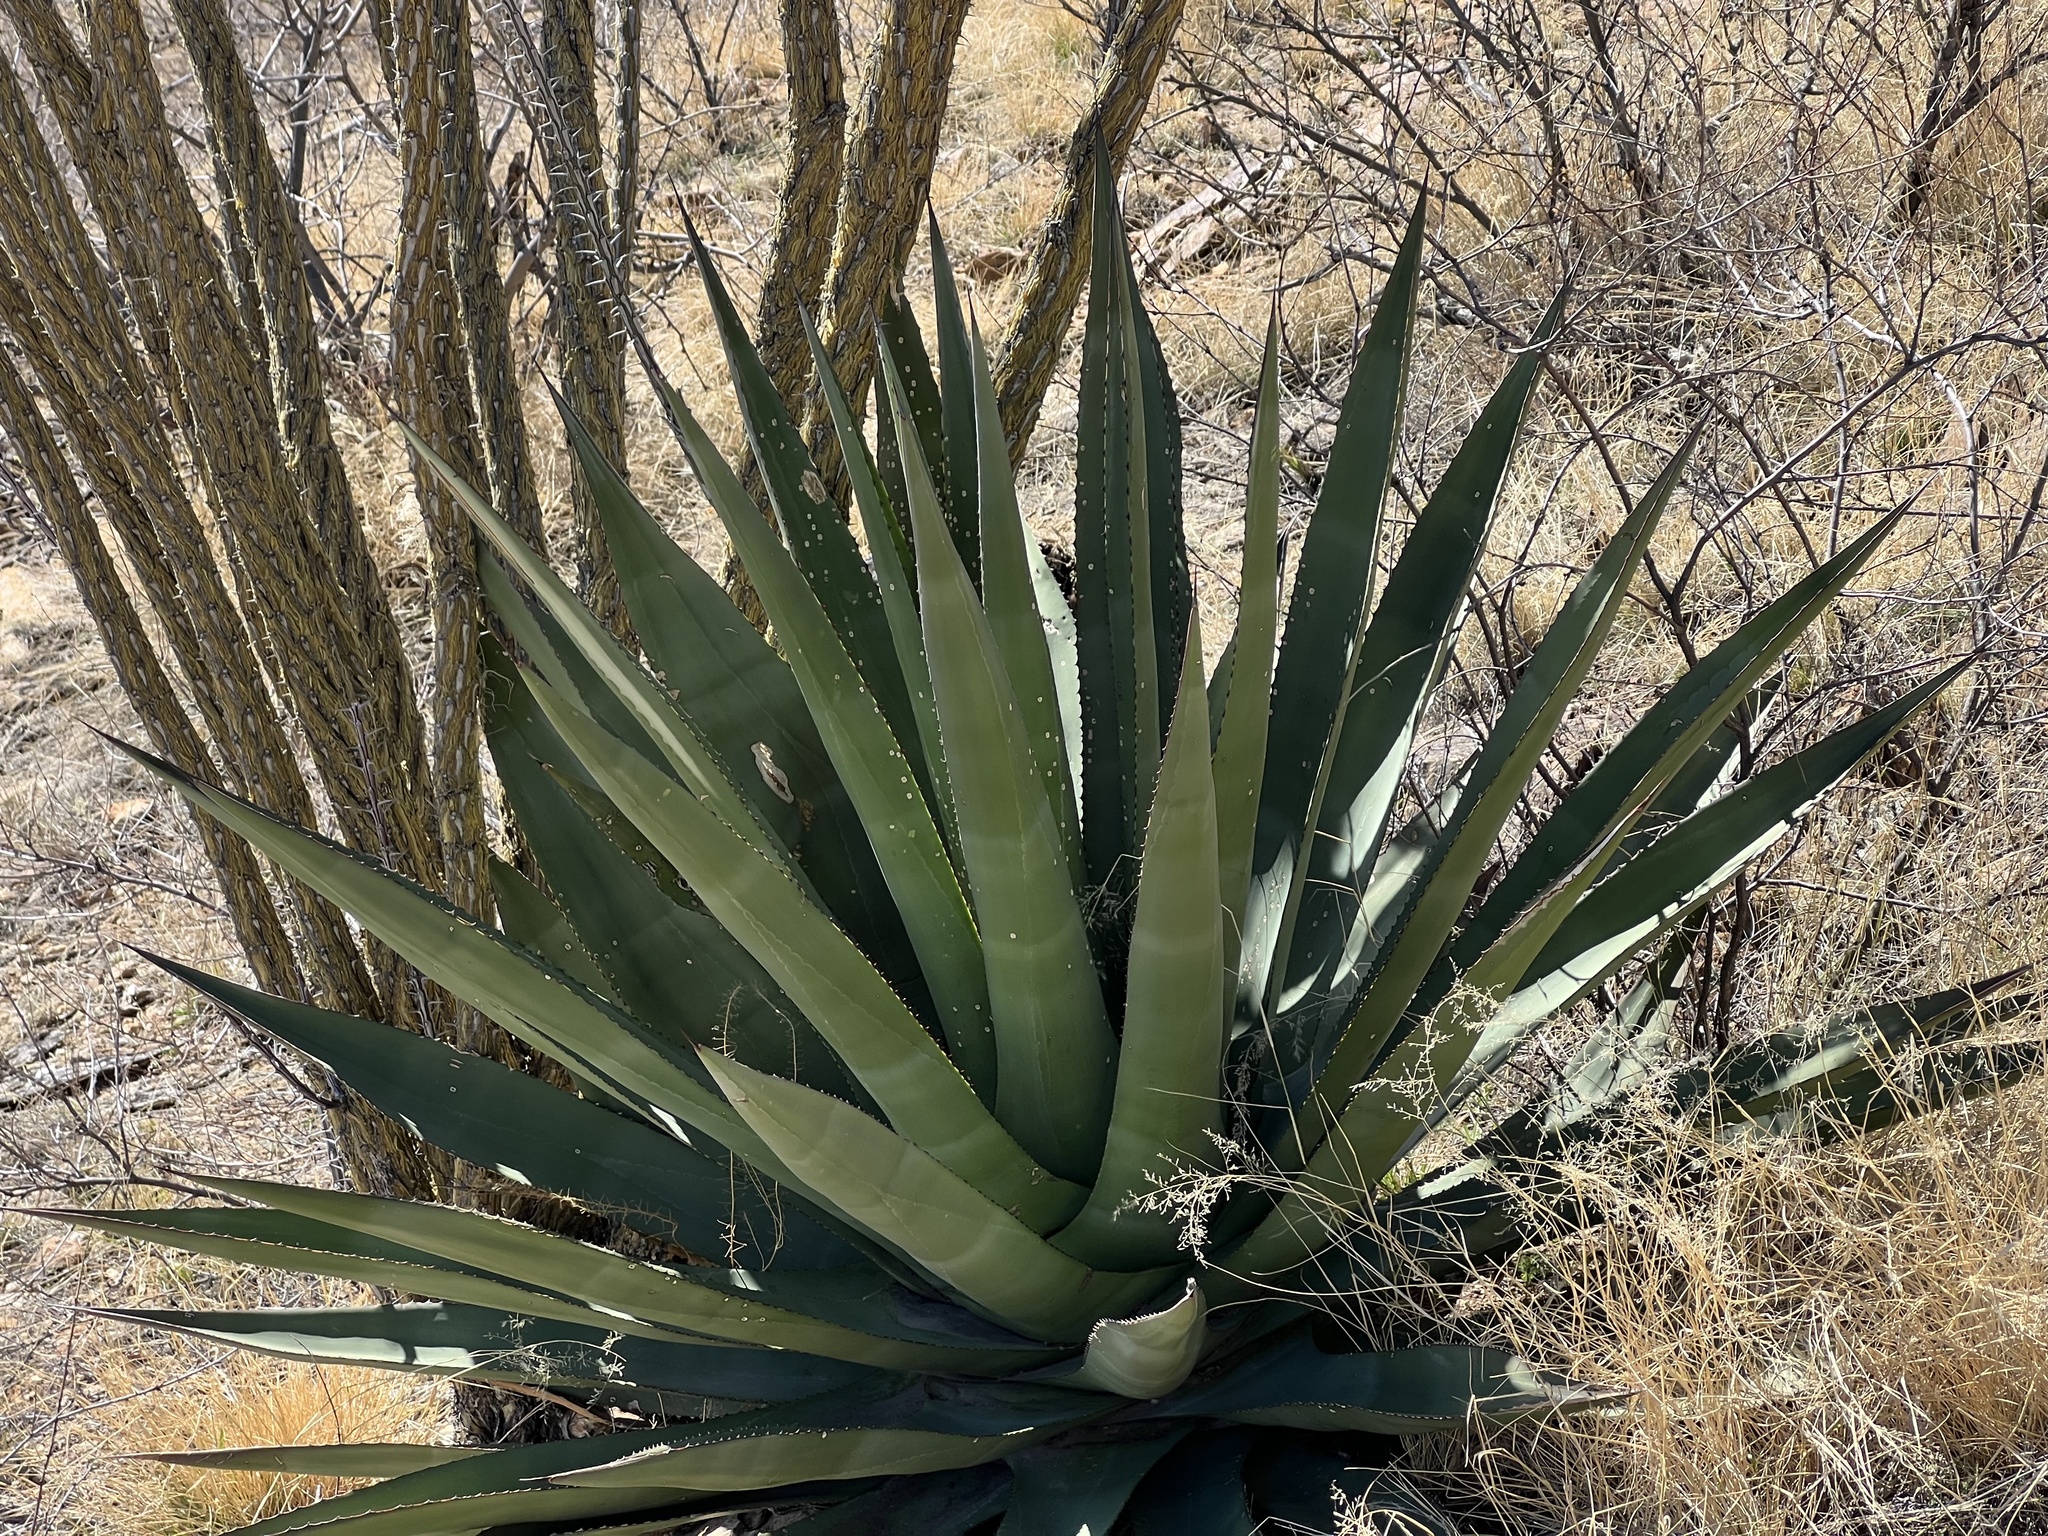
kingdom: Plantae
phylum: Tracheophyta
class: Liliopsida
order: Asparagales
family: Asparagaceae
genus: Agave
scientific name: Agave palmeri
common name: Palmer agave
